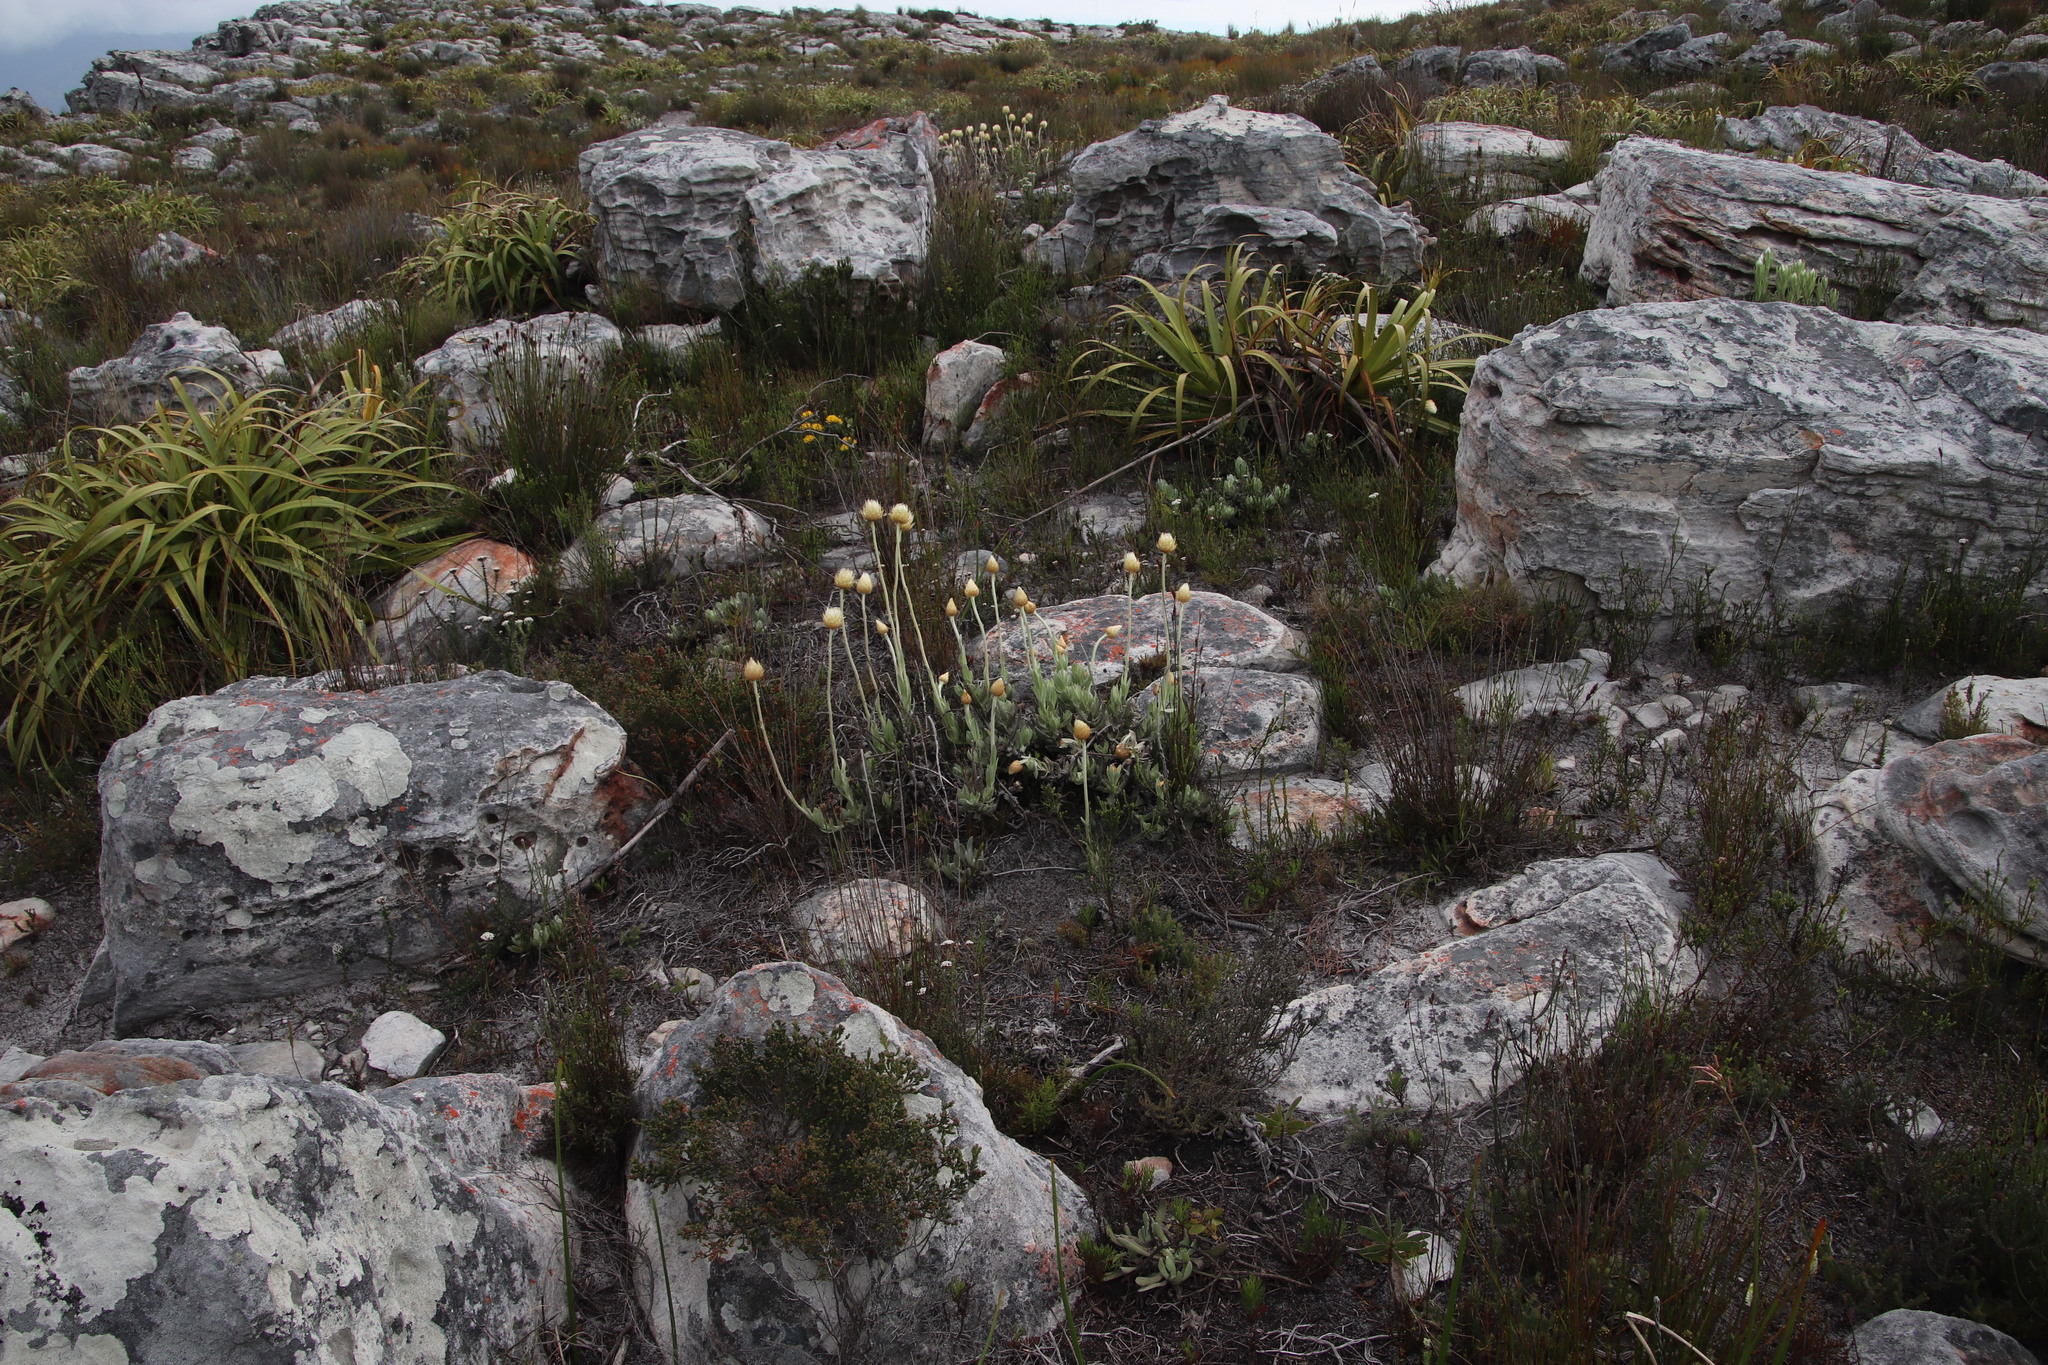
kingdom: Plantae
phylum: Tracheophyta
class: Magnoliopsida
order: Asterales
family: Asteraceae
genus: Syncarpha
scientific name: Syncarpha speciosissima
